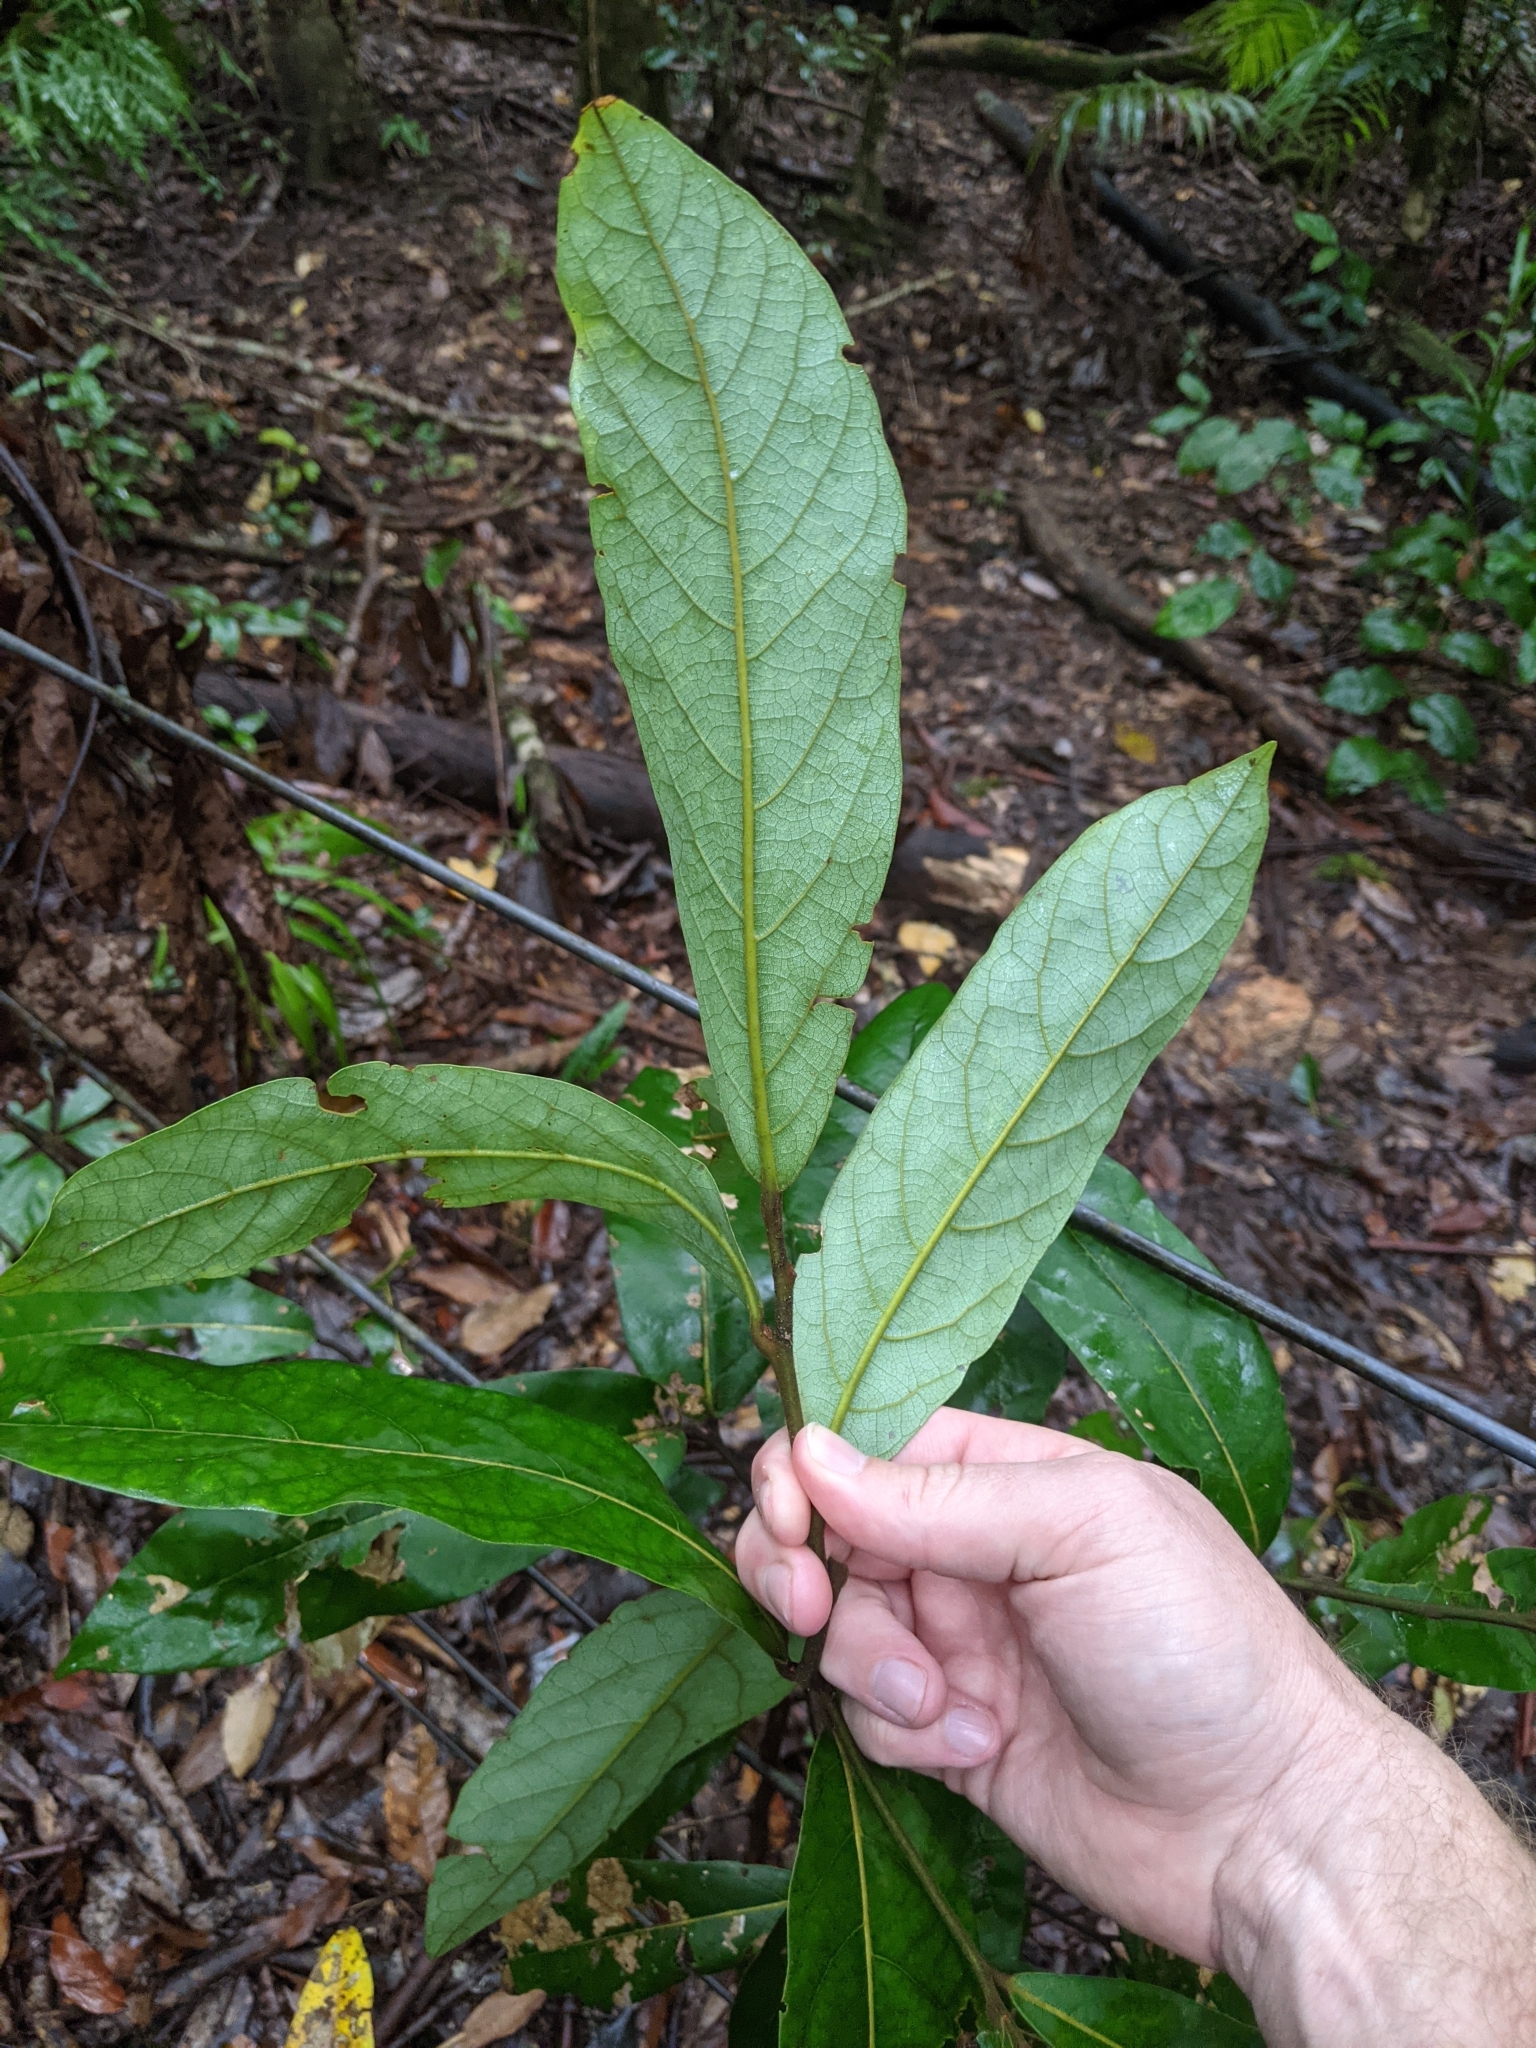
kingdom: Plantae
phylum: Tracheophyta
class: Magnoliopsida
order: Laurales
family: Lauraceae
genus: Cryptocarya
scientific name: Cryptocarya obovata
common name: Pepperberry-tree
